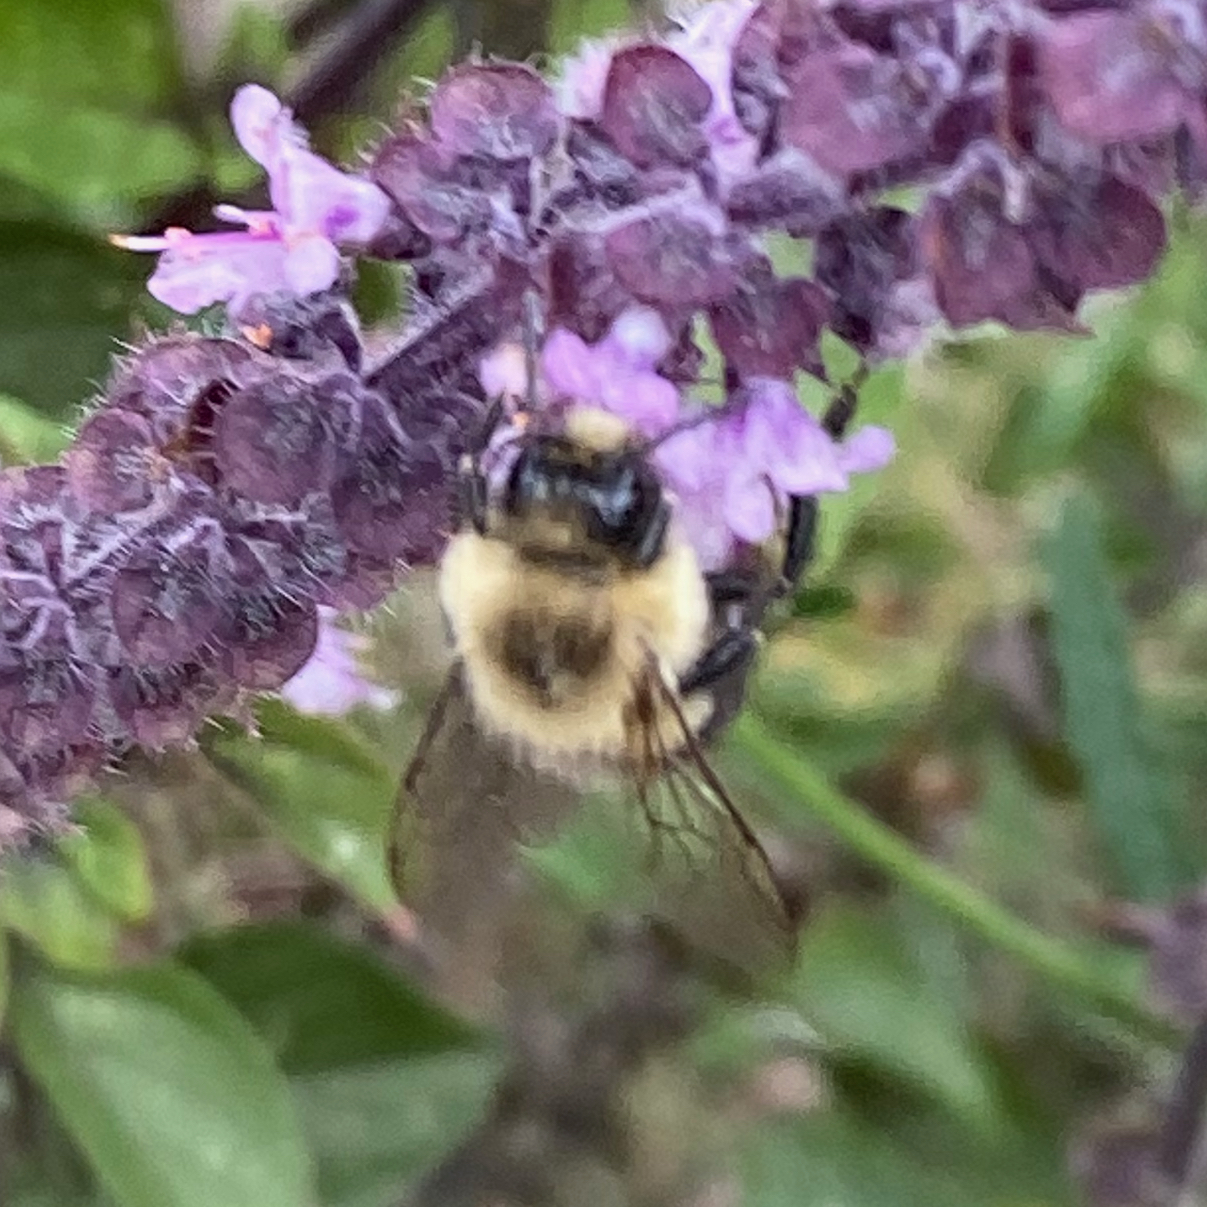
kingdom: Animalia
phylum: Arthropoda
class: Insecta
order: Hymenoptera
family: Apidae
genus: Bombus
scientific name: Bombus impatiens
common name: Common eastern bumble bee
